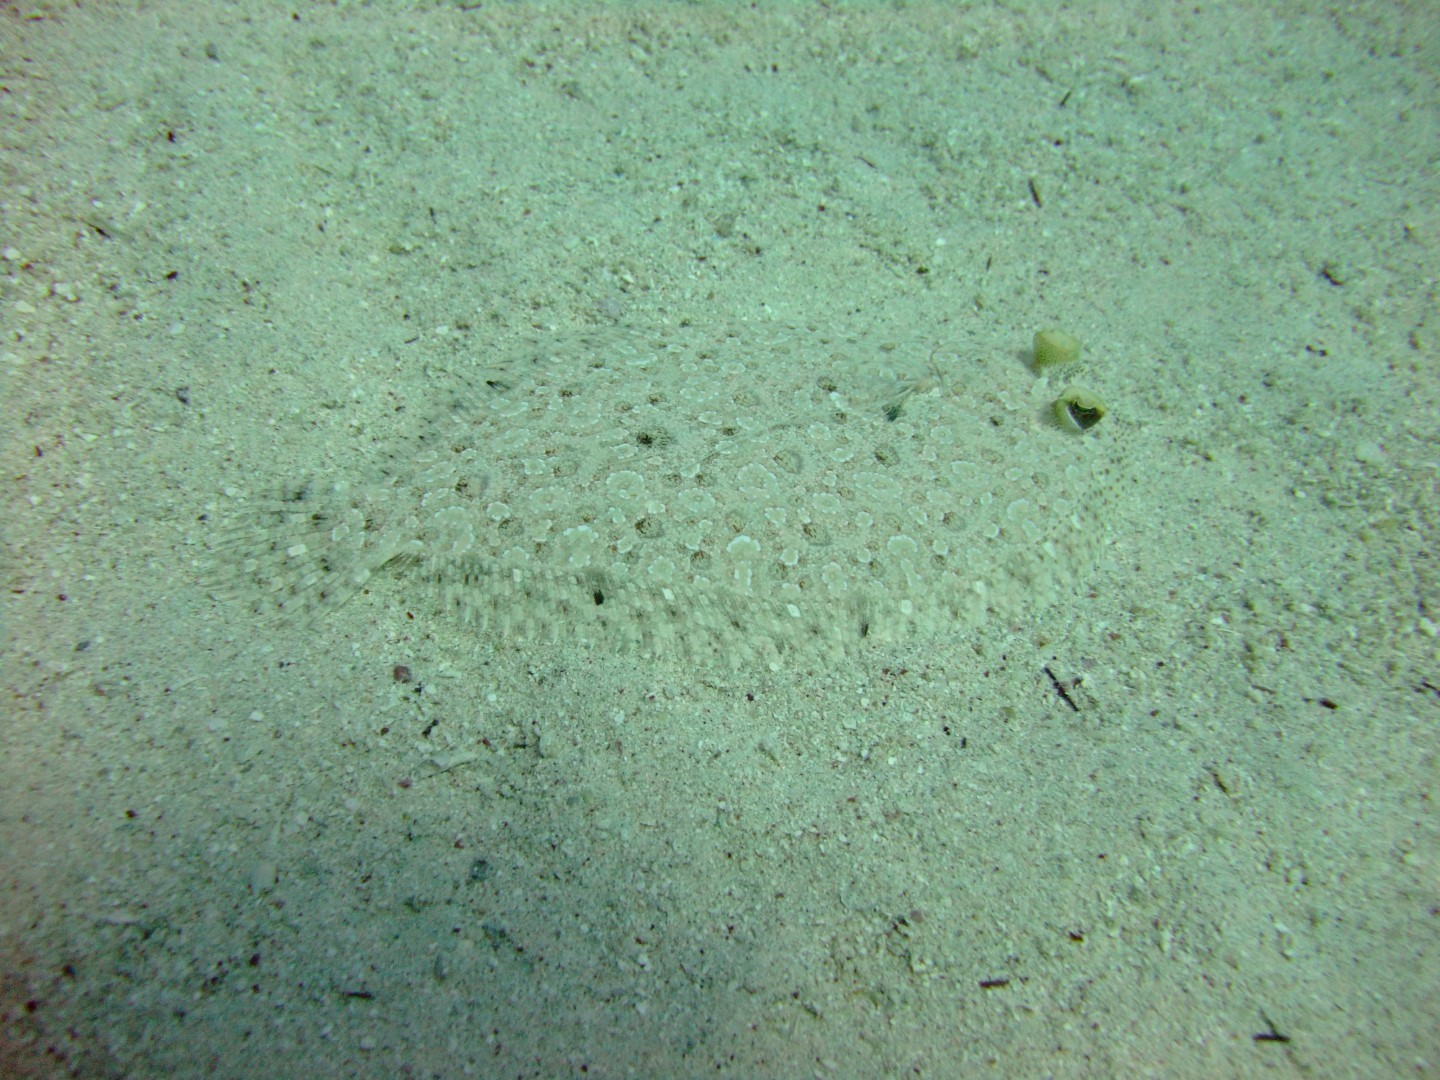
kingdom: Animalia
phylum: Chordata
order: Pleuronectiformes
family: Bothidae
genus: Bothus
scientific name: Bothus pantherinus
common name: Leopard flounder
